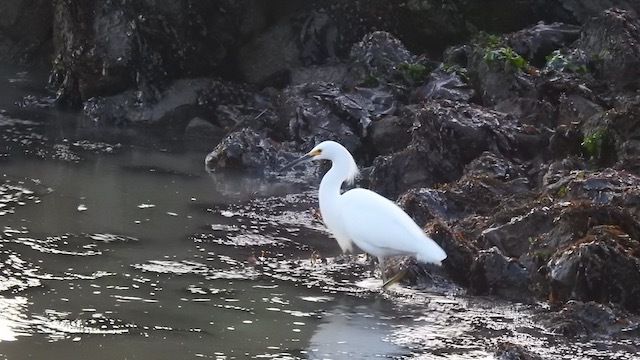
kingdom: Animalia
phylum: Chordata
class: Aves
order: Pelecaniformes
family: Ardeidae
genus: Egretta
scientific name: Egretta thula
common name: Snowy egret
